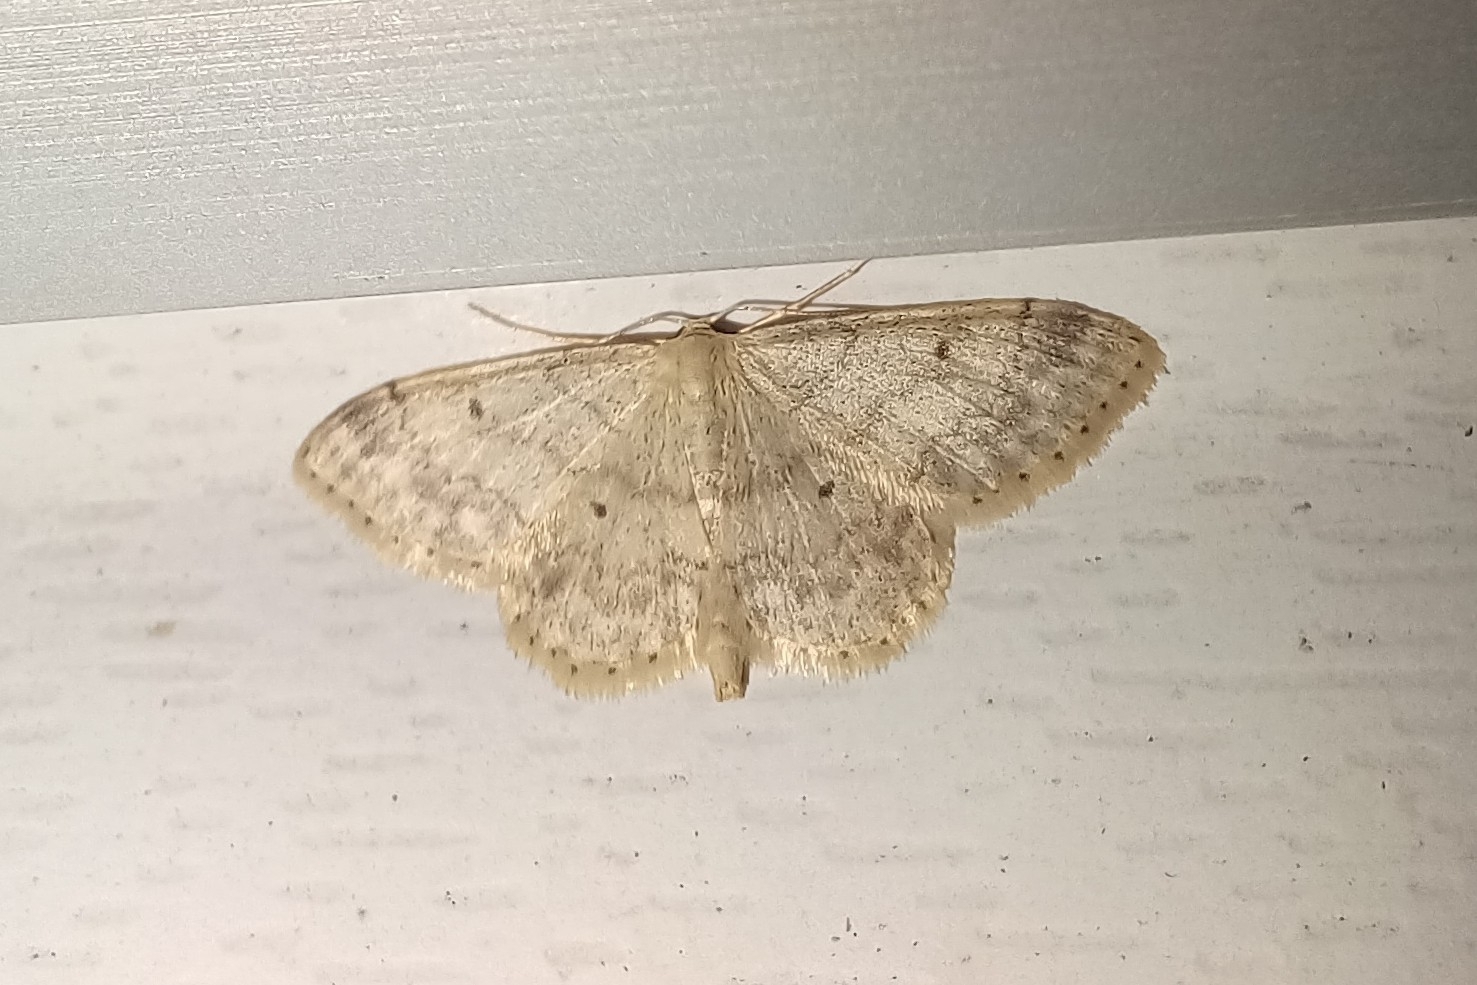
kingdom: Animalia
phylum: Arthropoda
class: Insecta
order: Lepidoptera
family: Geometridae
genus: Idaea
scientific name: Idaea biselata
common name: Small fan-footed wave
